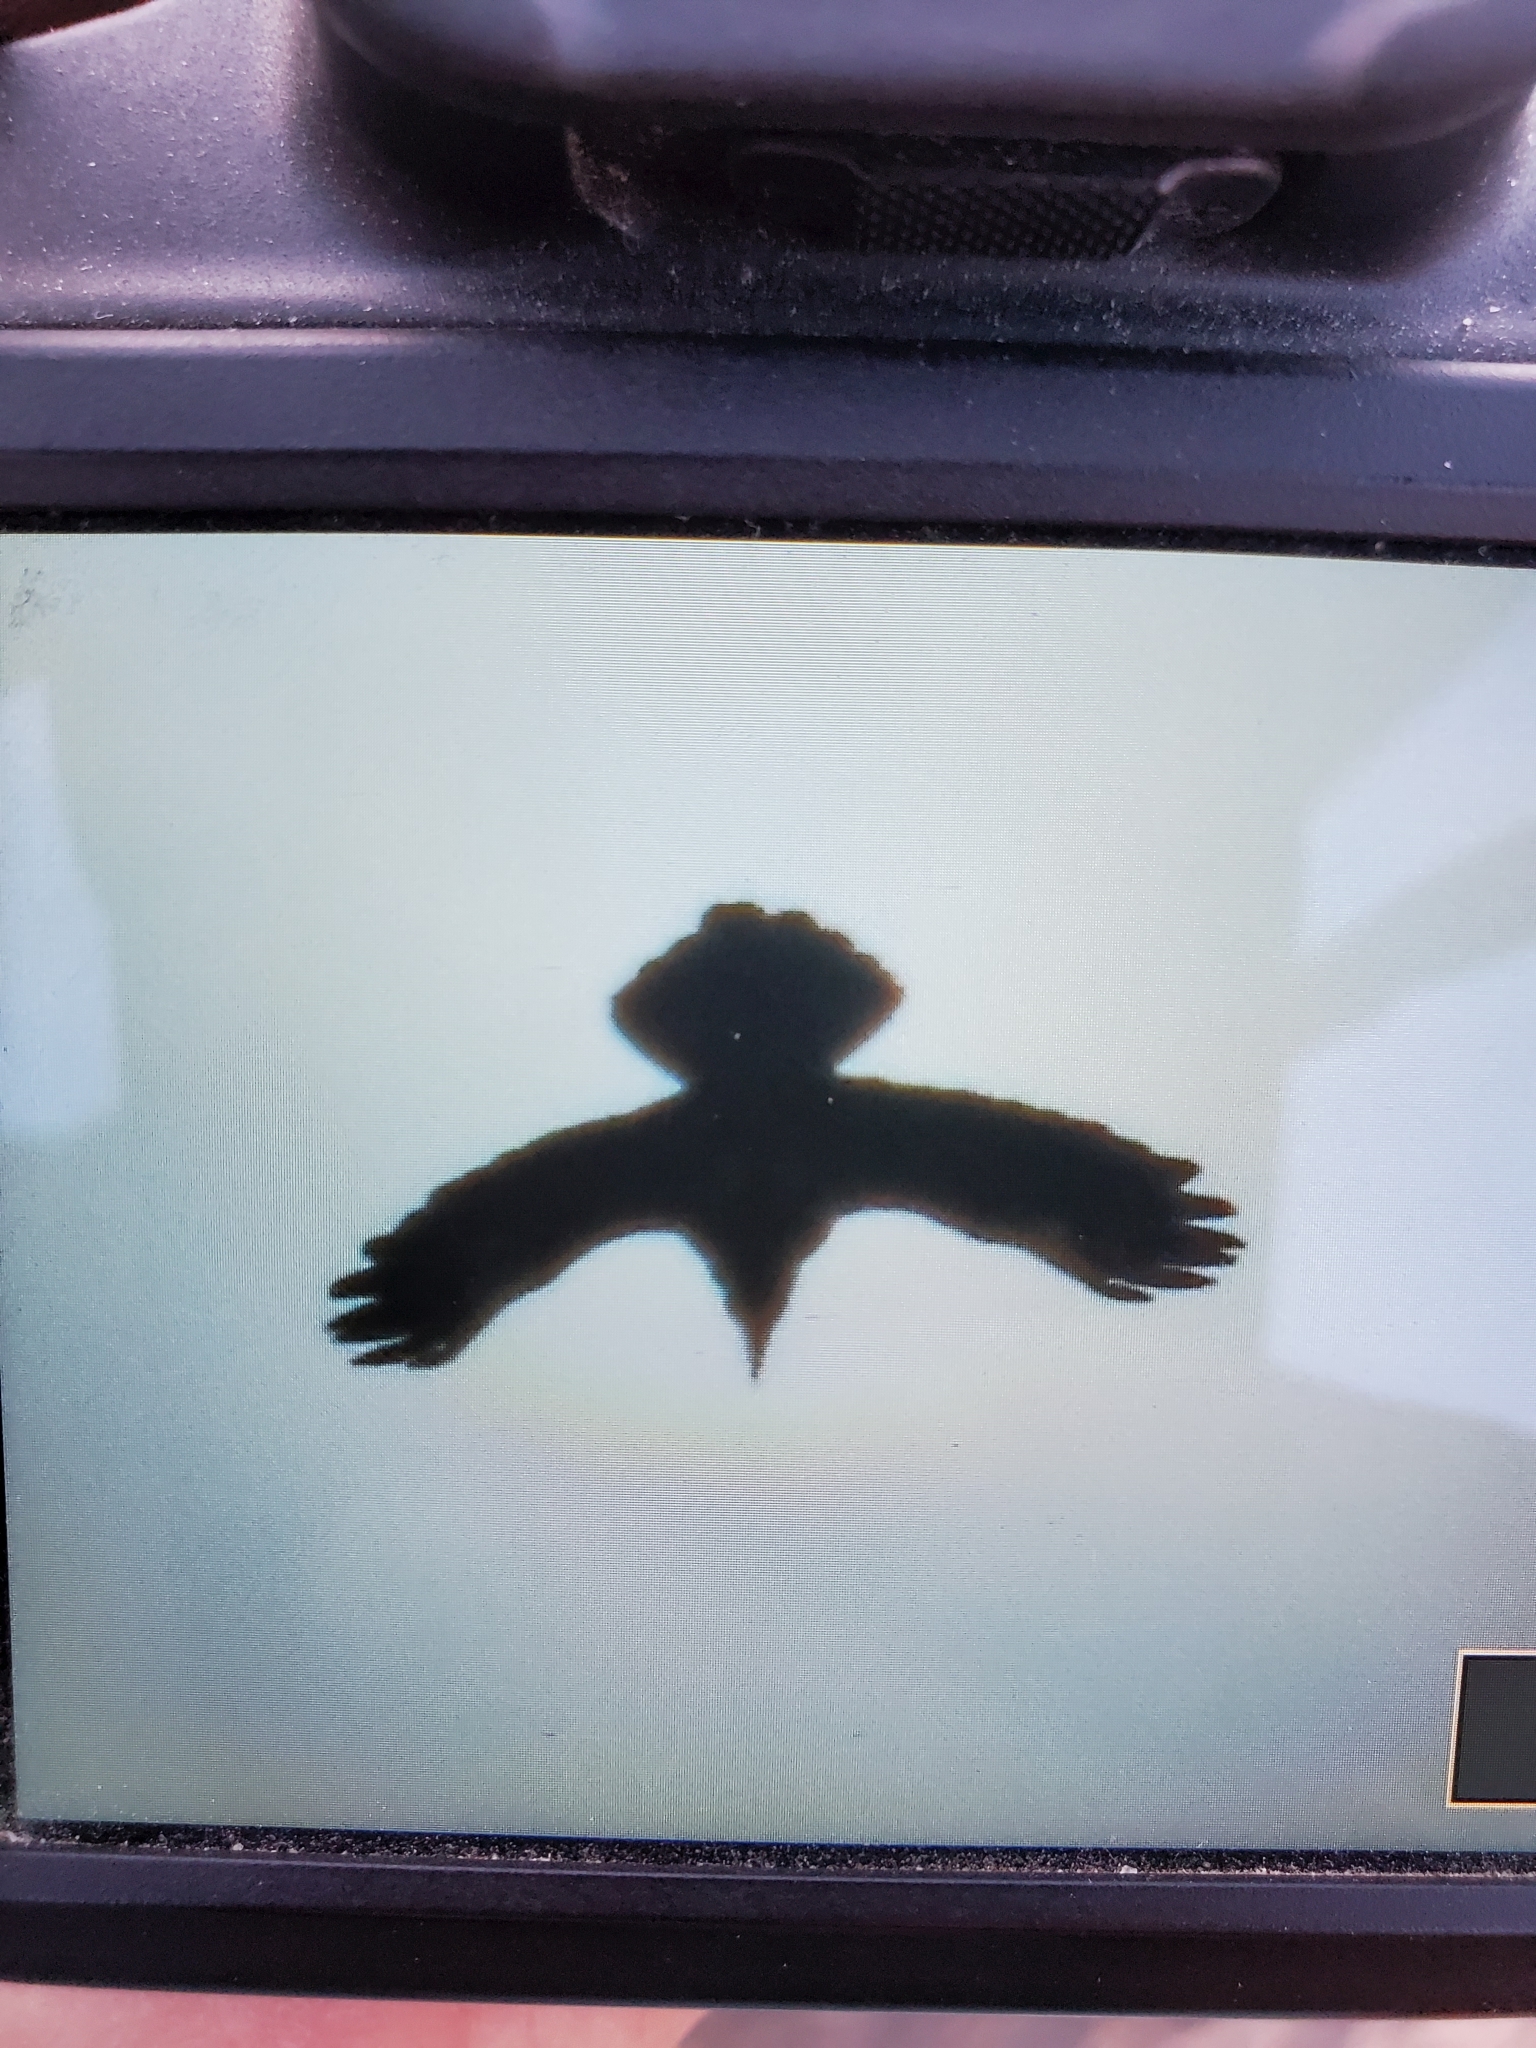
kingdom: Animalia
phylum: Chordata
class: Aves
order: Passeriformes
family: Corvidae
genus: Corvus
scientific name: Corvus corax
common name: Common raven
